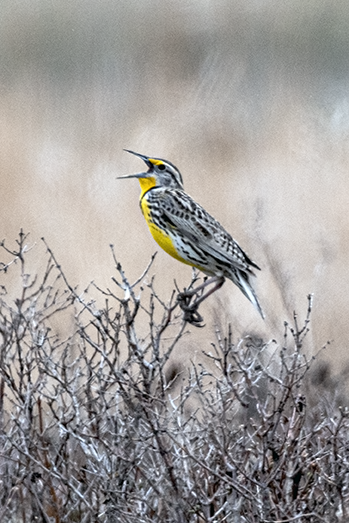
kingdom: Animalia
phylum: Chordata
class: Aves
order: Passeriformes
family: Icteridae
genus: Sturnella
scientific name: Sturnella neglecta
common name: Western meadowlark
